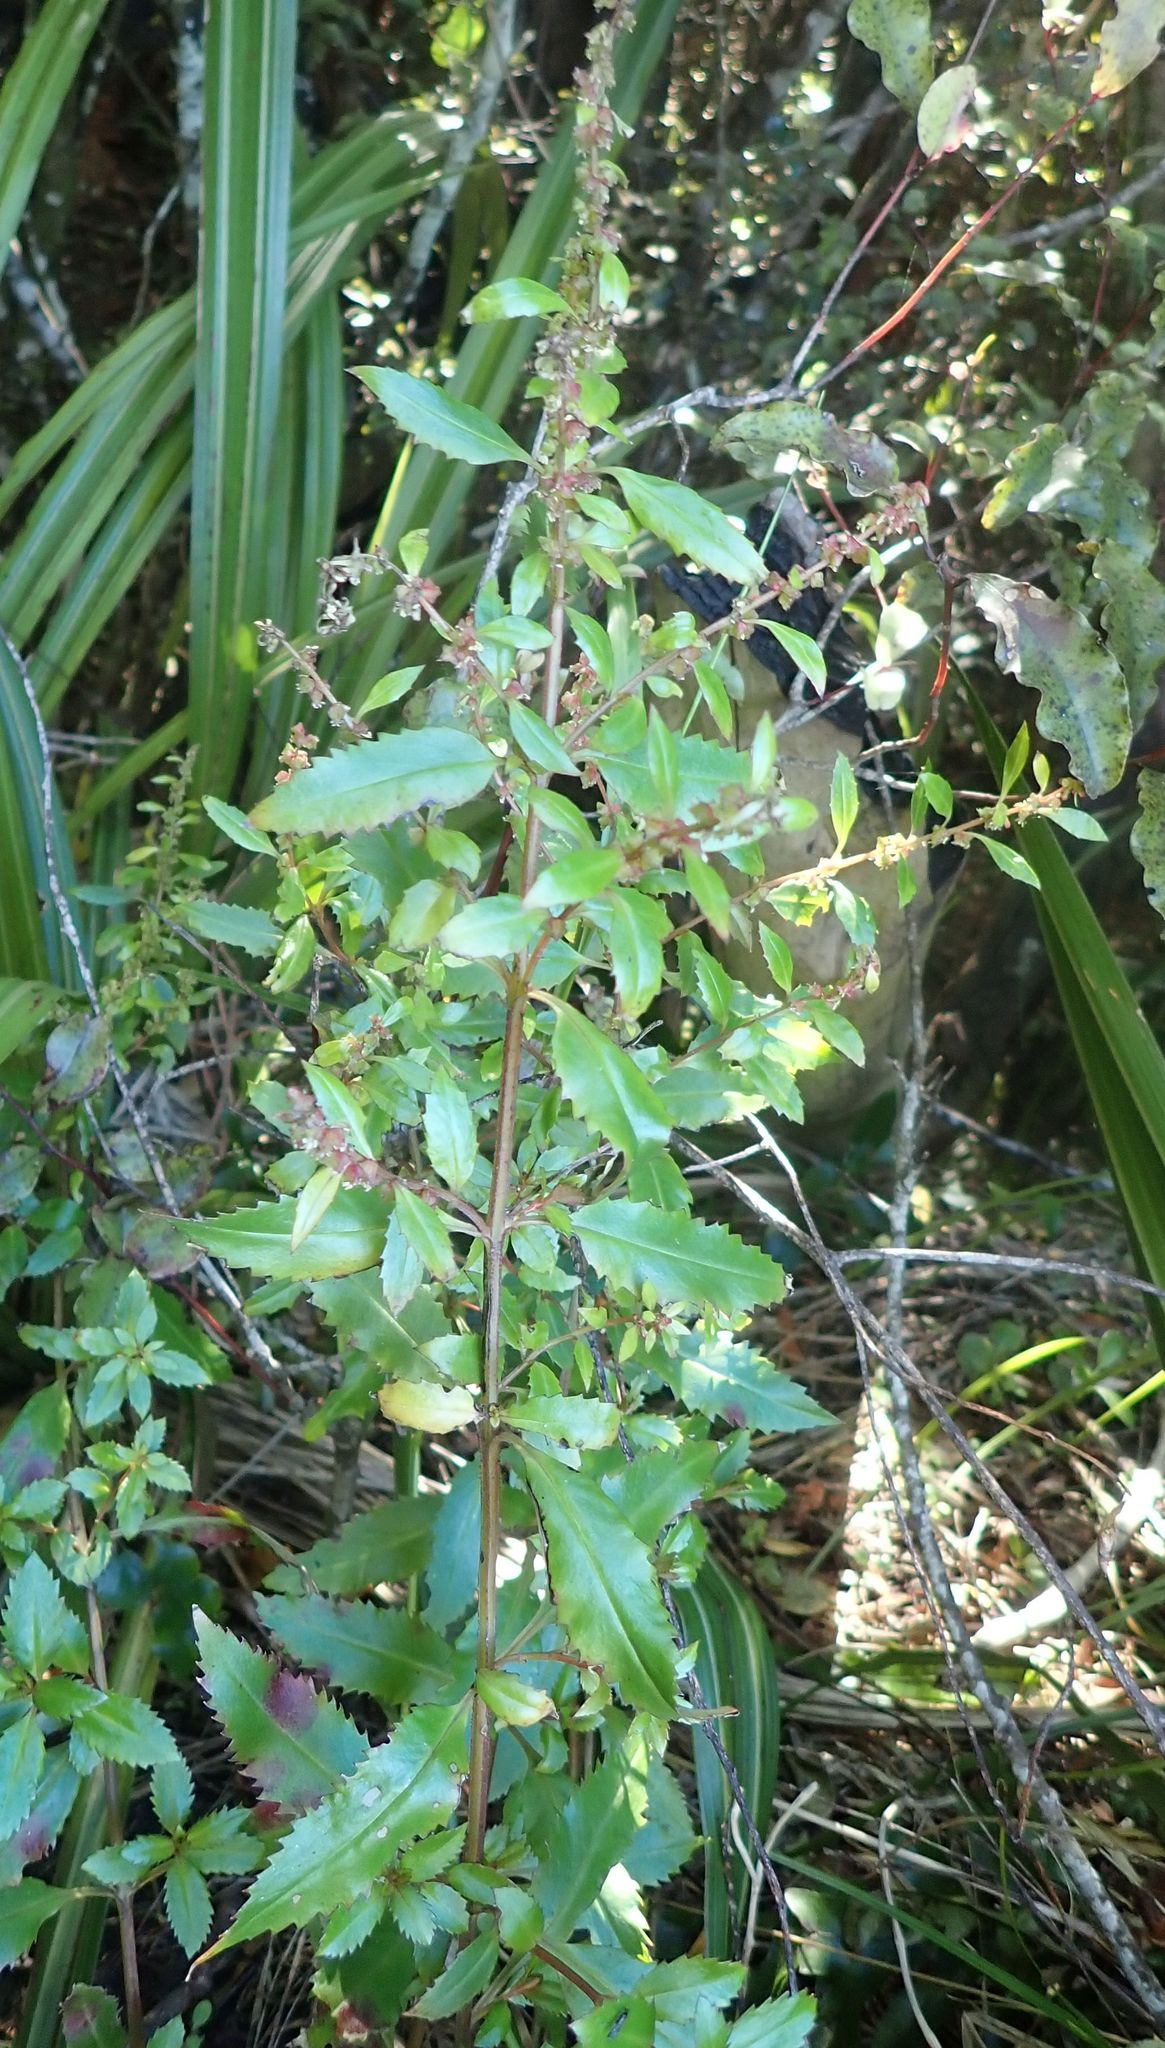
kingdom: Plantae
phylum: Tracheophyta
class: Magnoliopsida
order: Saxifragales
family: Haloragaceae
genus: Haloragis
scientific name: Haloragis erecta
